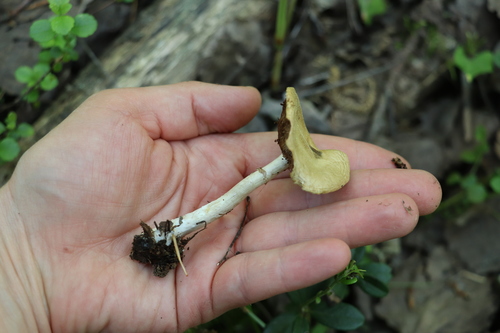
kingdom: Fungi
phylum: Basidiomycota
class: Agaricomycetes
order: Agaricales
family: Strophariaceae
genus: Agrocybe
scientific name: Agrocybe praecox
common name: Spring fieldcap
